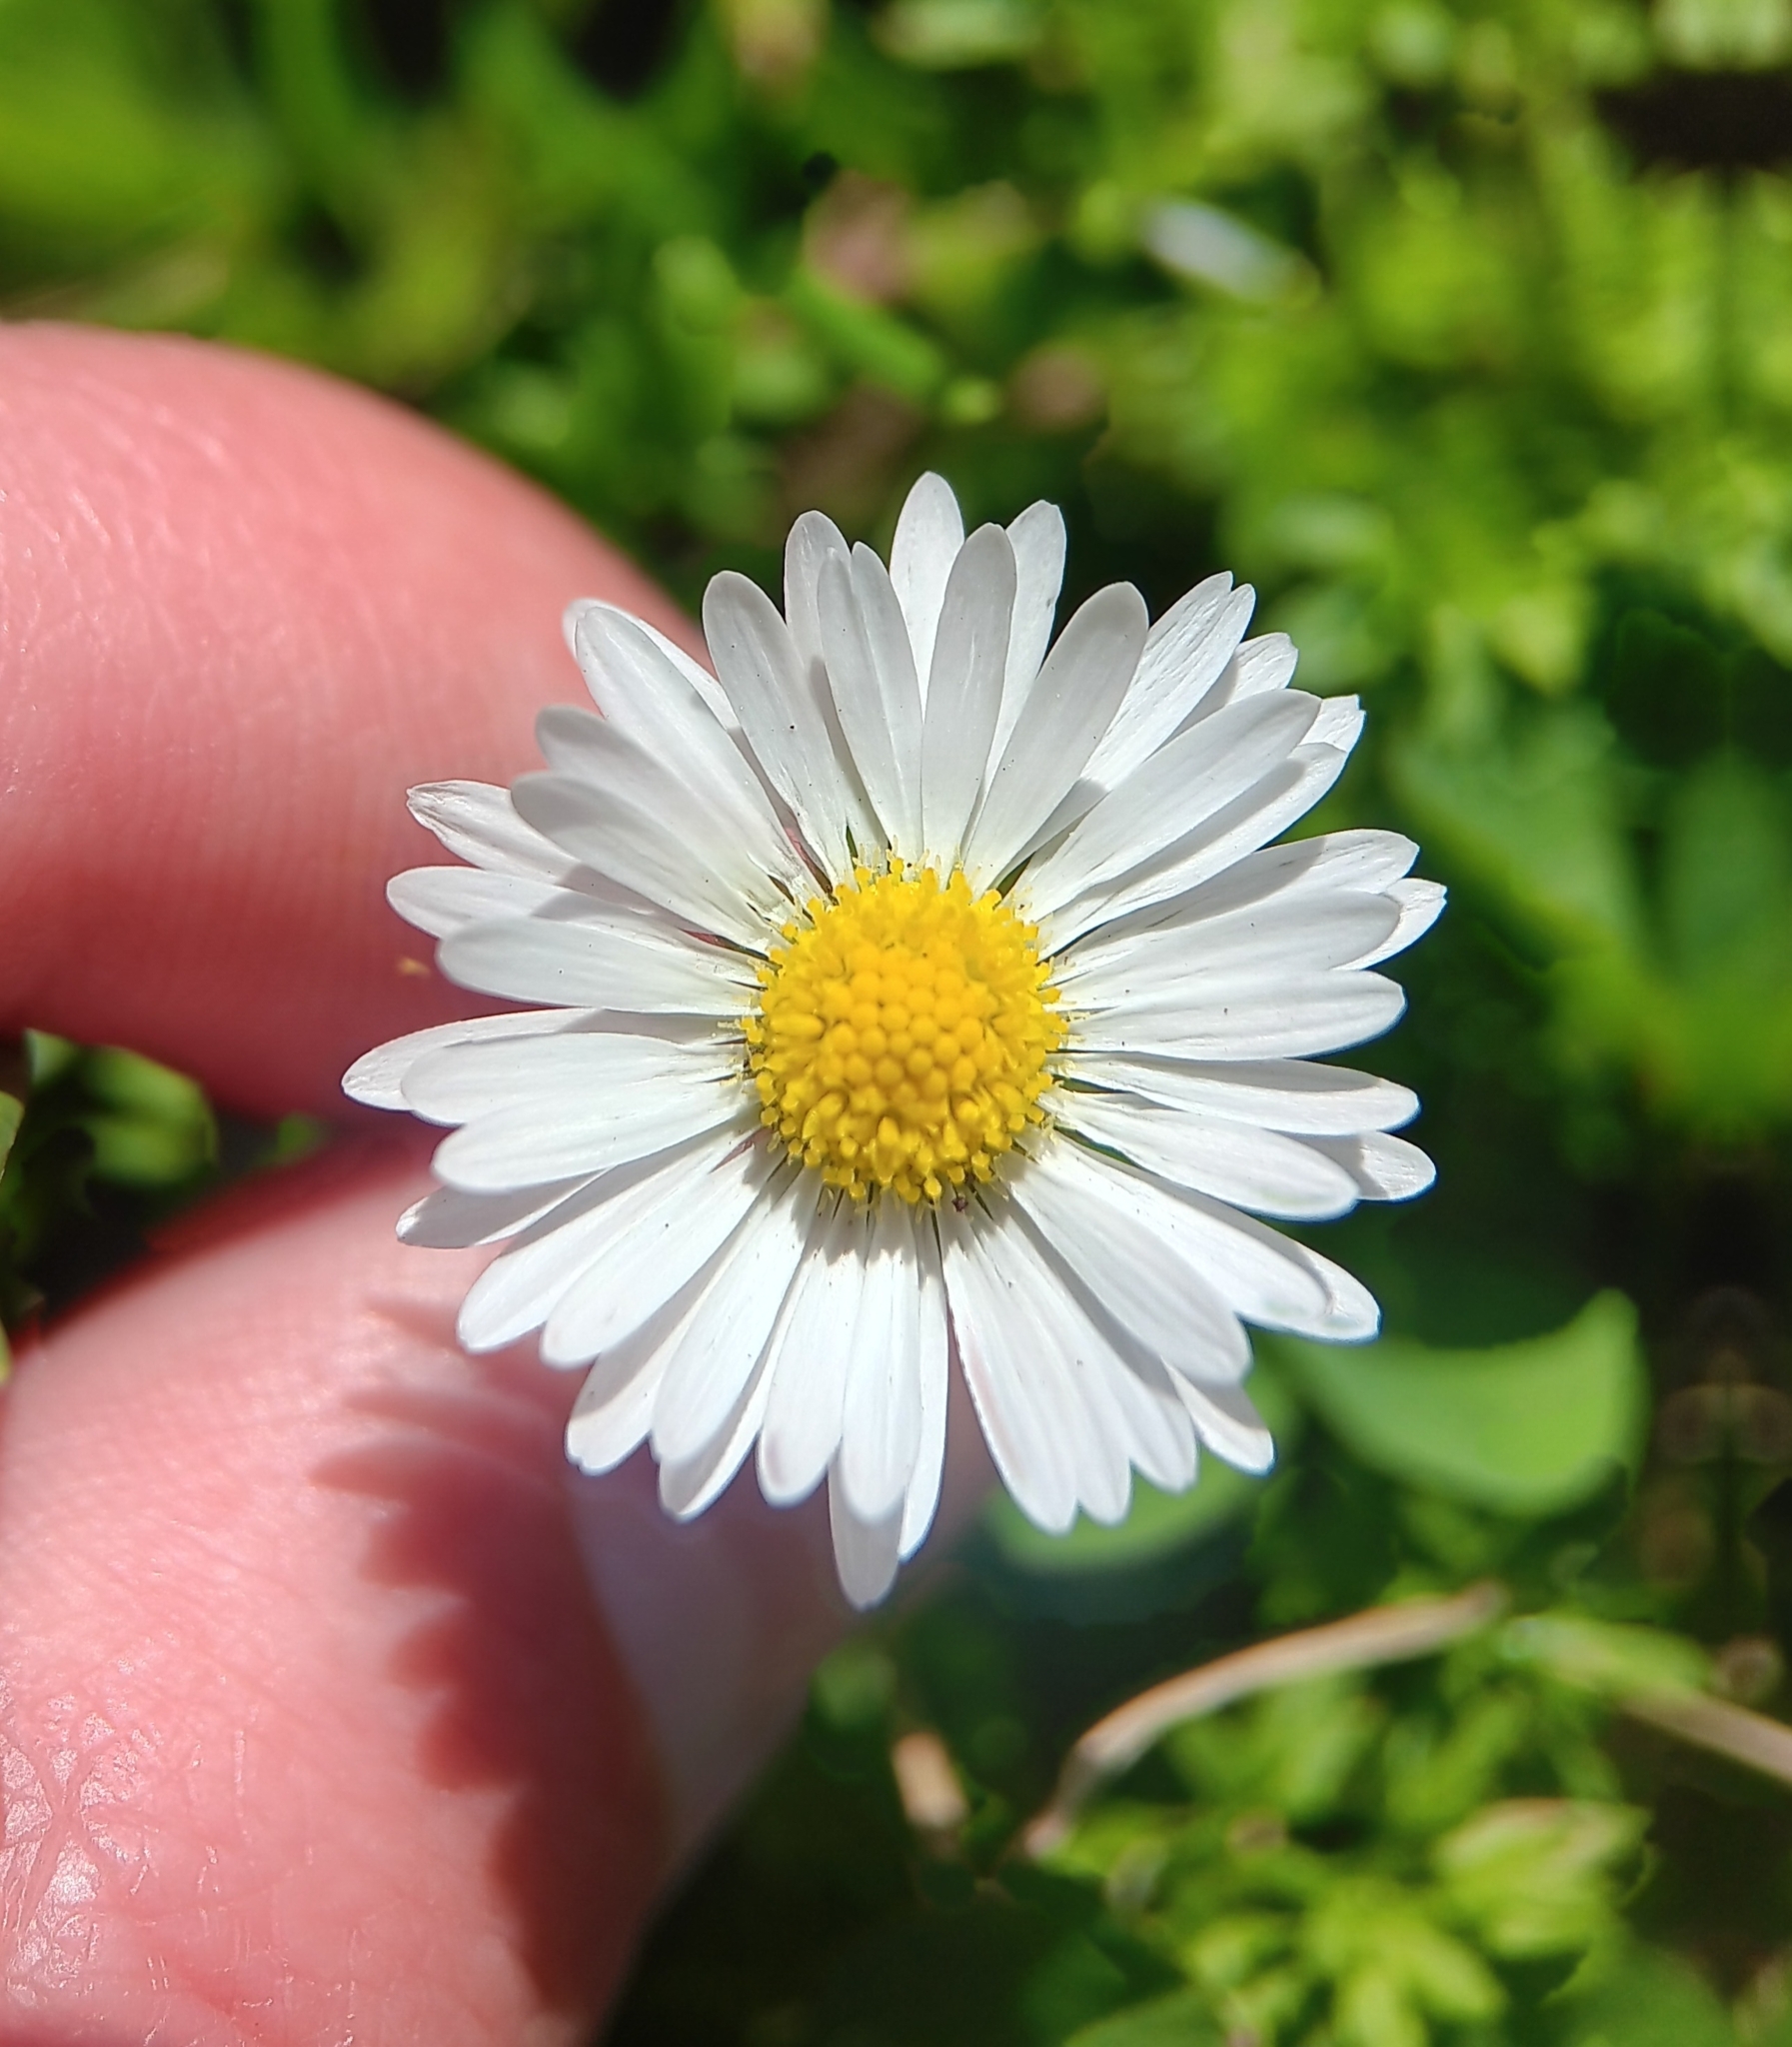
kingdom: Plantae
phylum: Tracheophyta
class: Magnoliopsida
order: Asterales
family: Asteraceae
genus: Bellis
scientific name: Bellis perennis
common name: Lawndaisy
